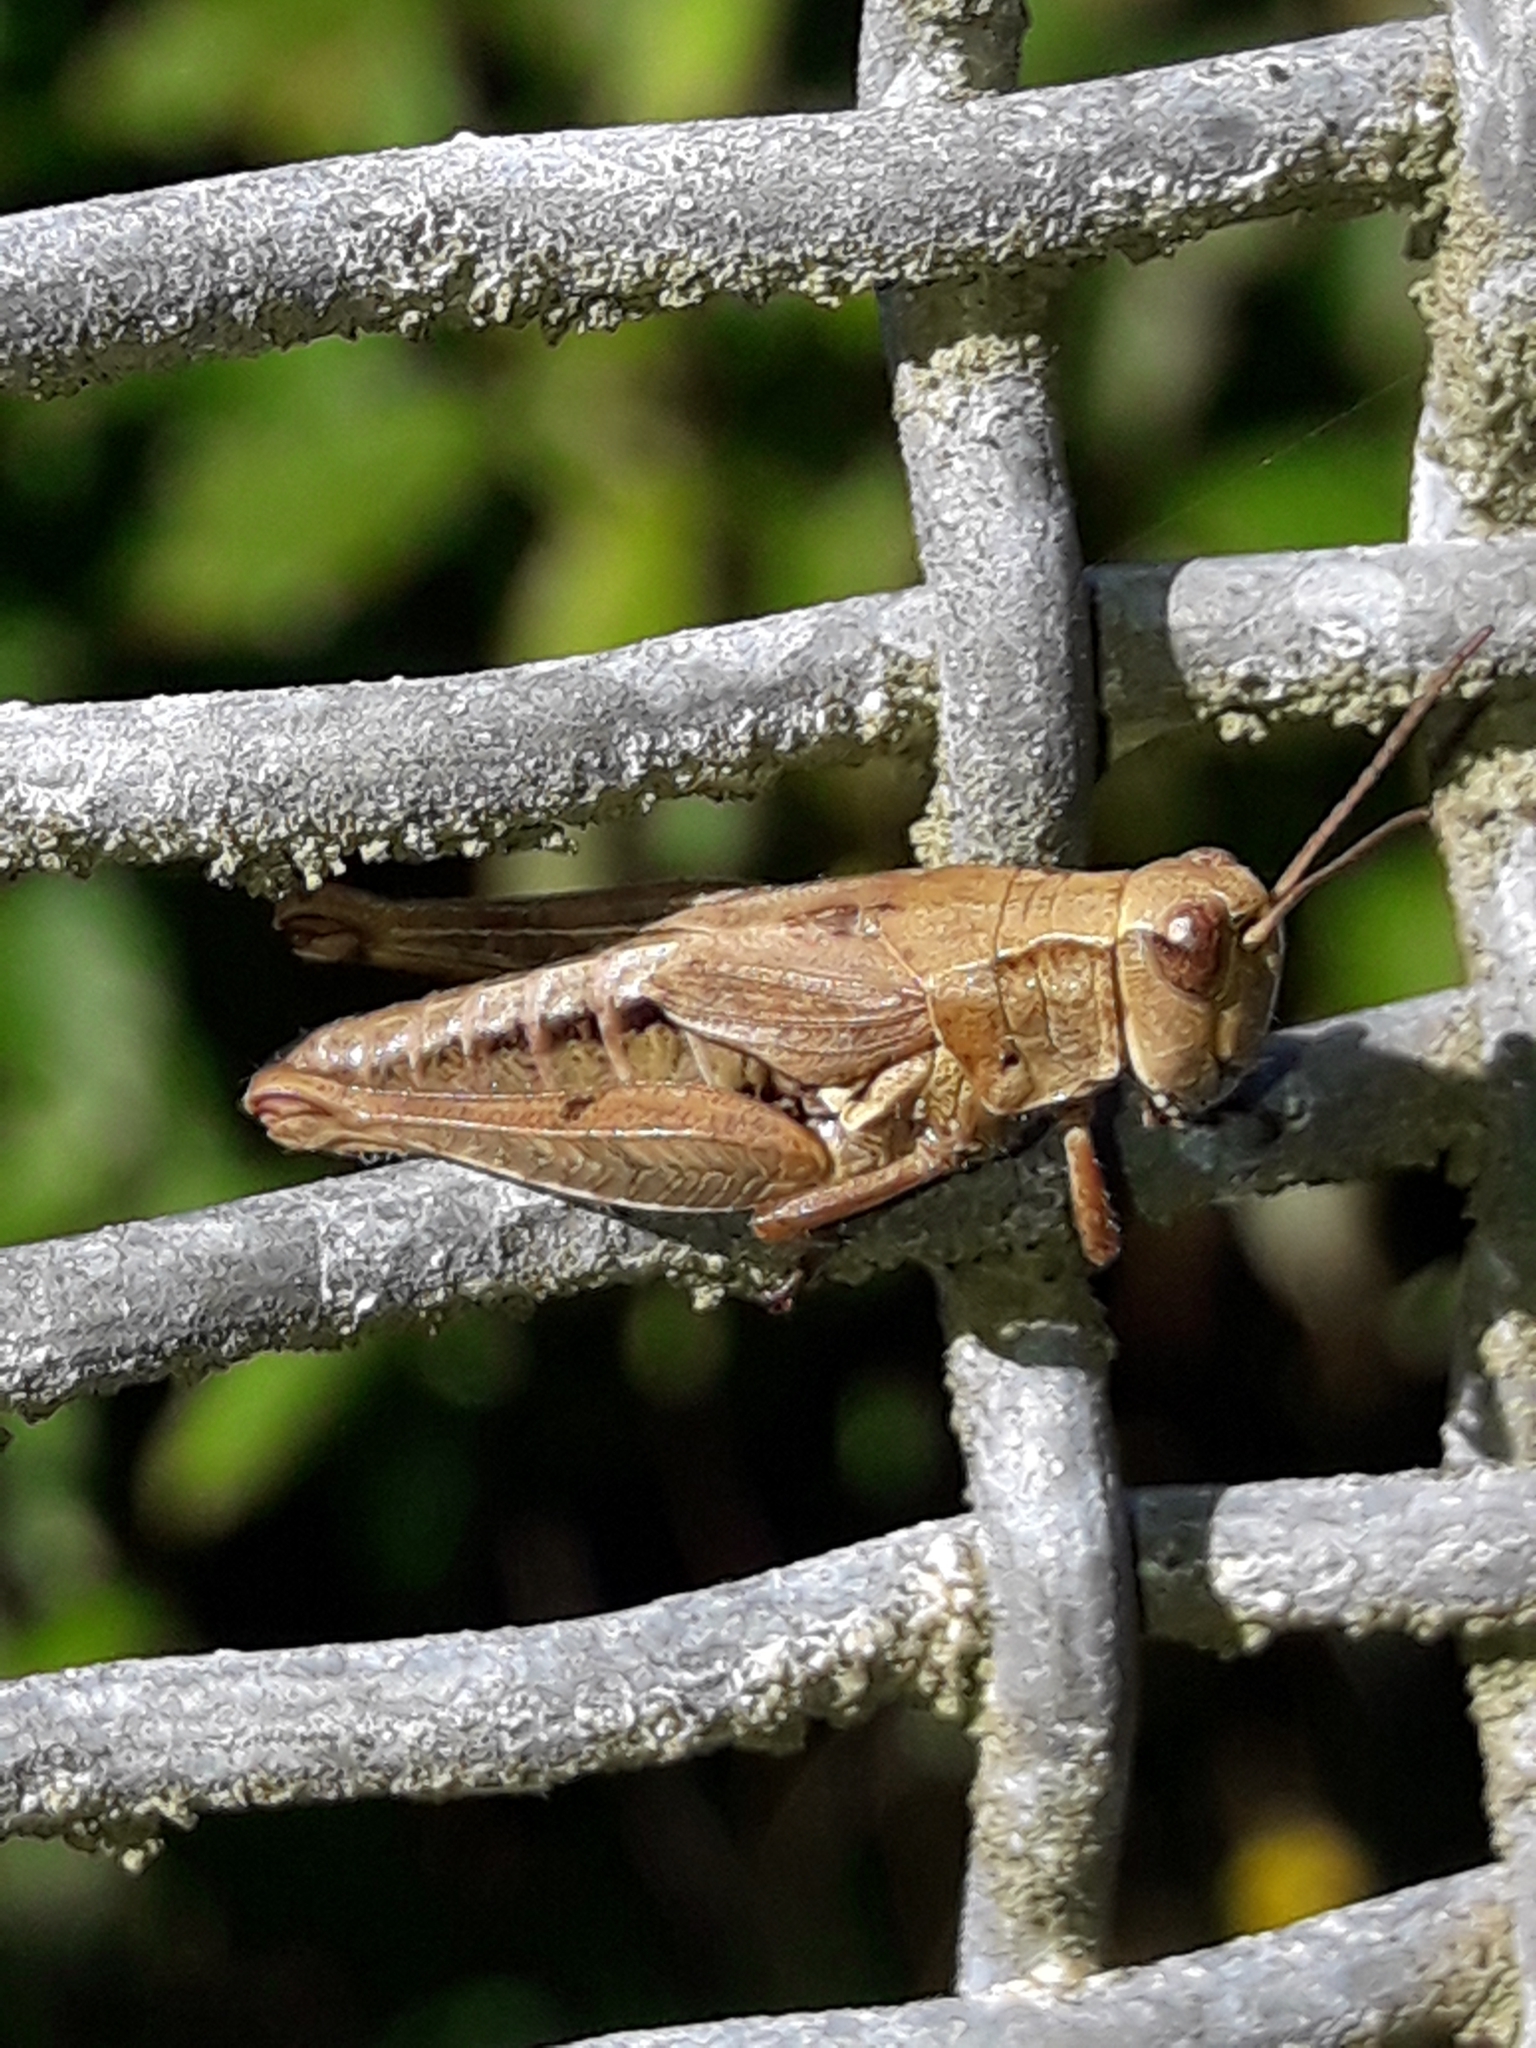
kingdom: Animalia
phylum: Arthropoda
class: Insecta
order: Orthoptera
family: Acrididae
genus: Phaulacridium
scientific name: Phaulacridium marginale
